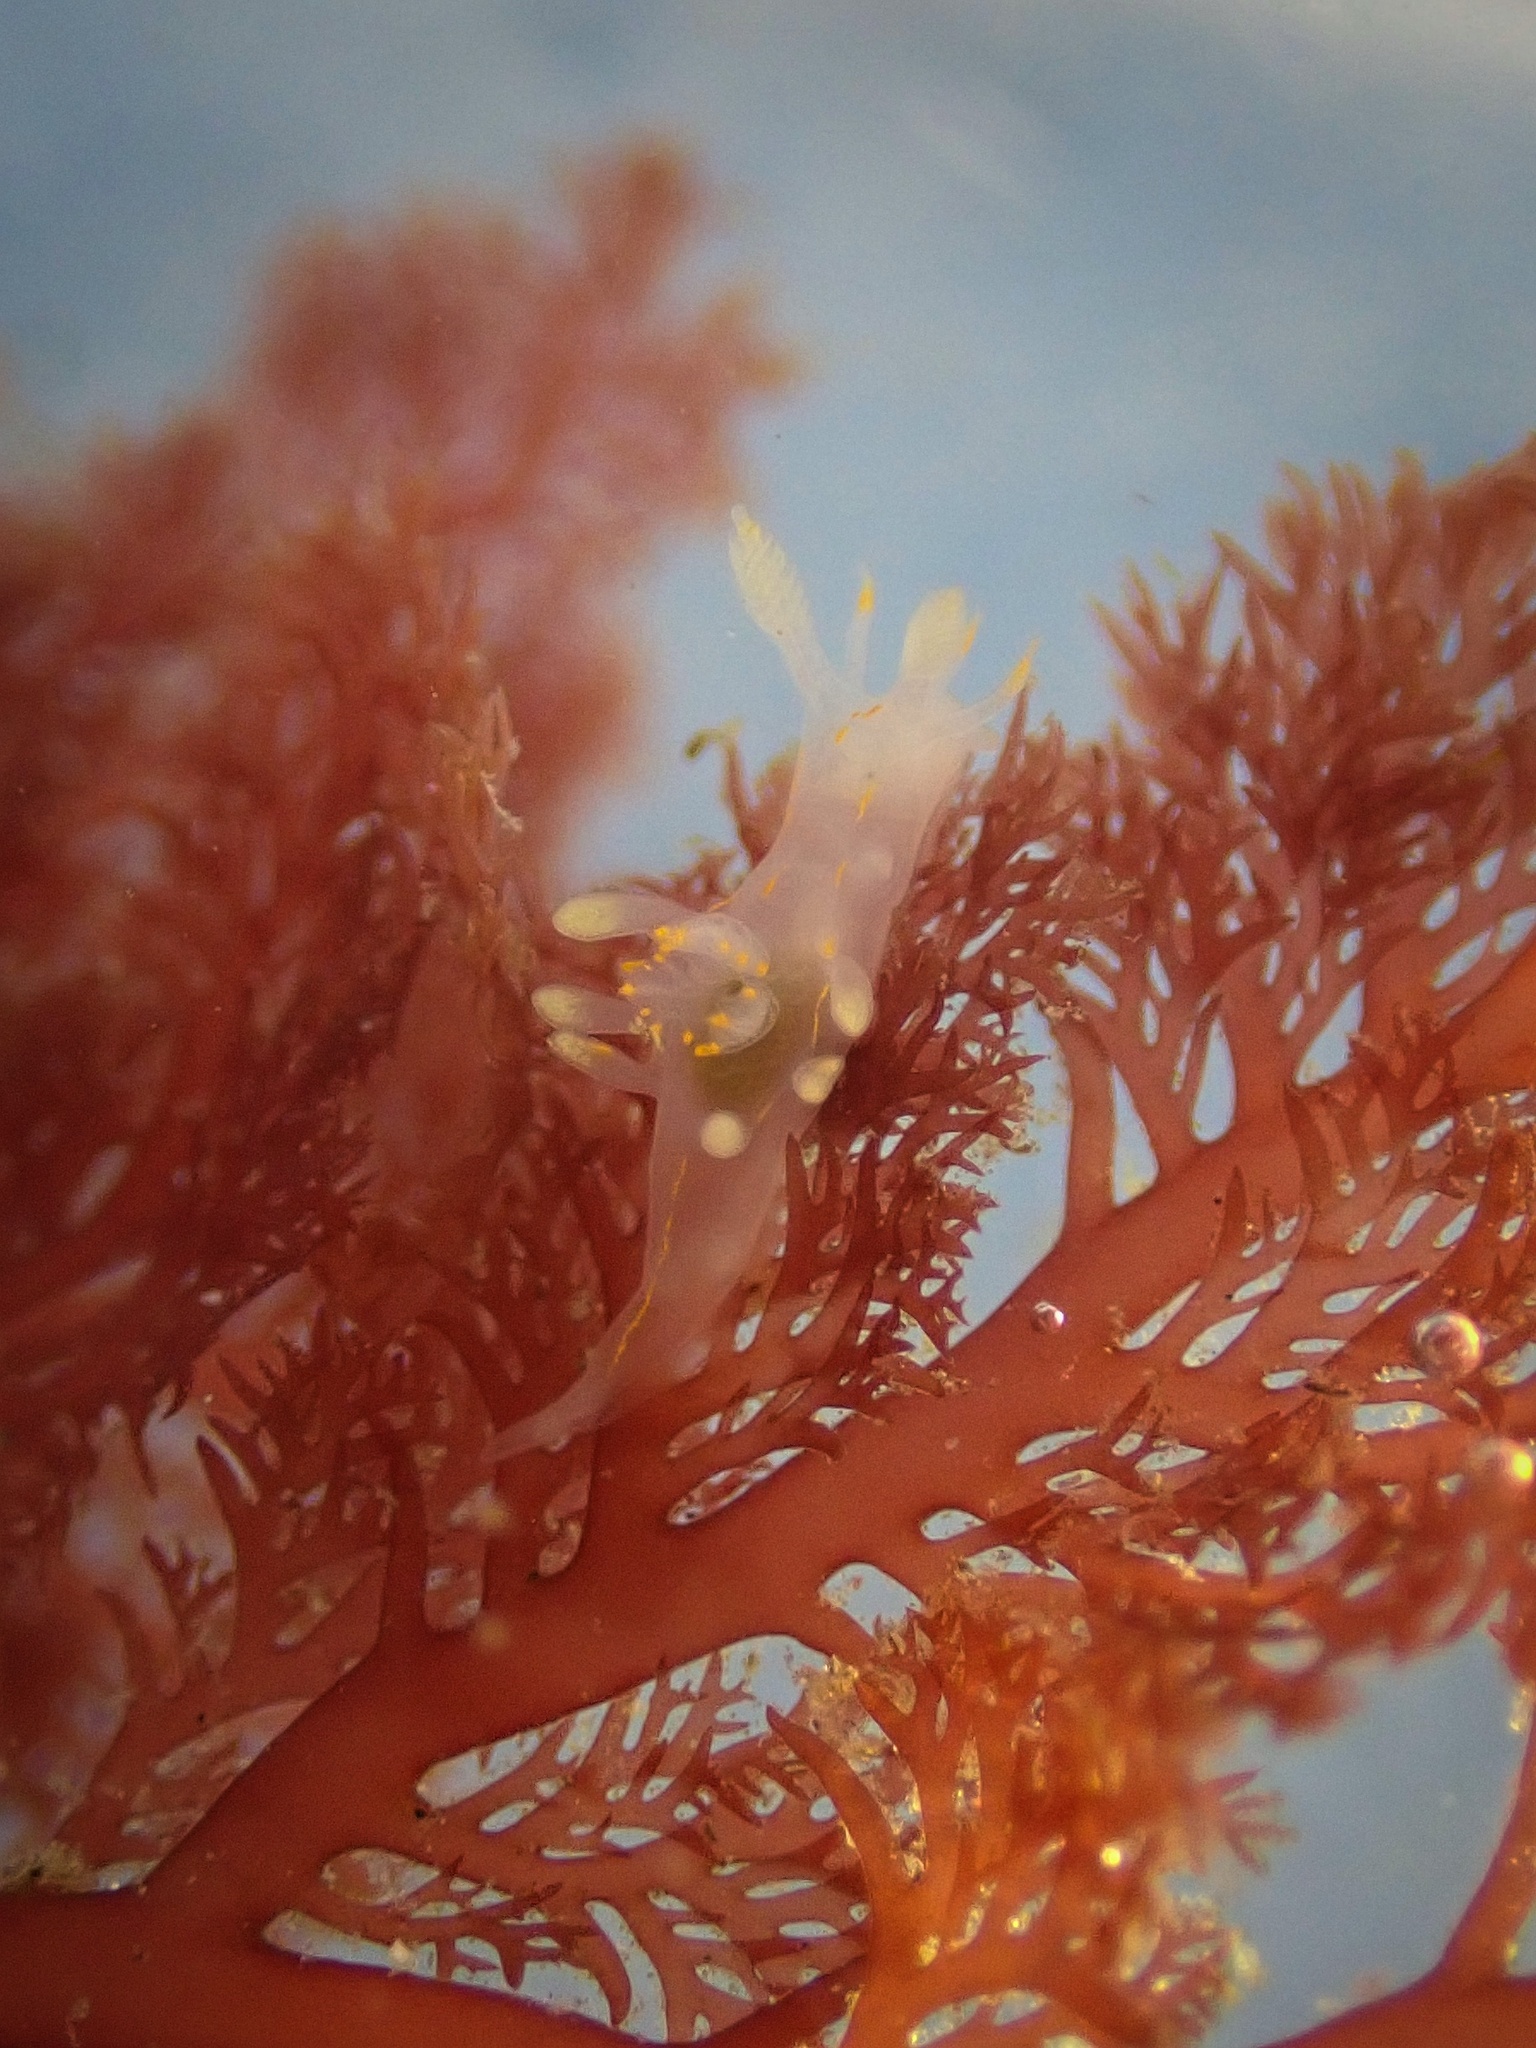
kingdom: Animalia
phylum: Mollusca
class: Gastropoda
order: Nudibranchia
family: Goniodorididae
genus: Ancula
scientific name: Ancula pacifica
